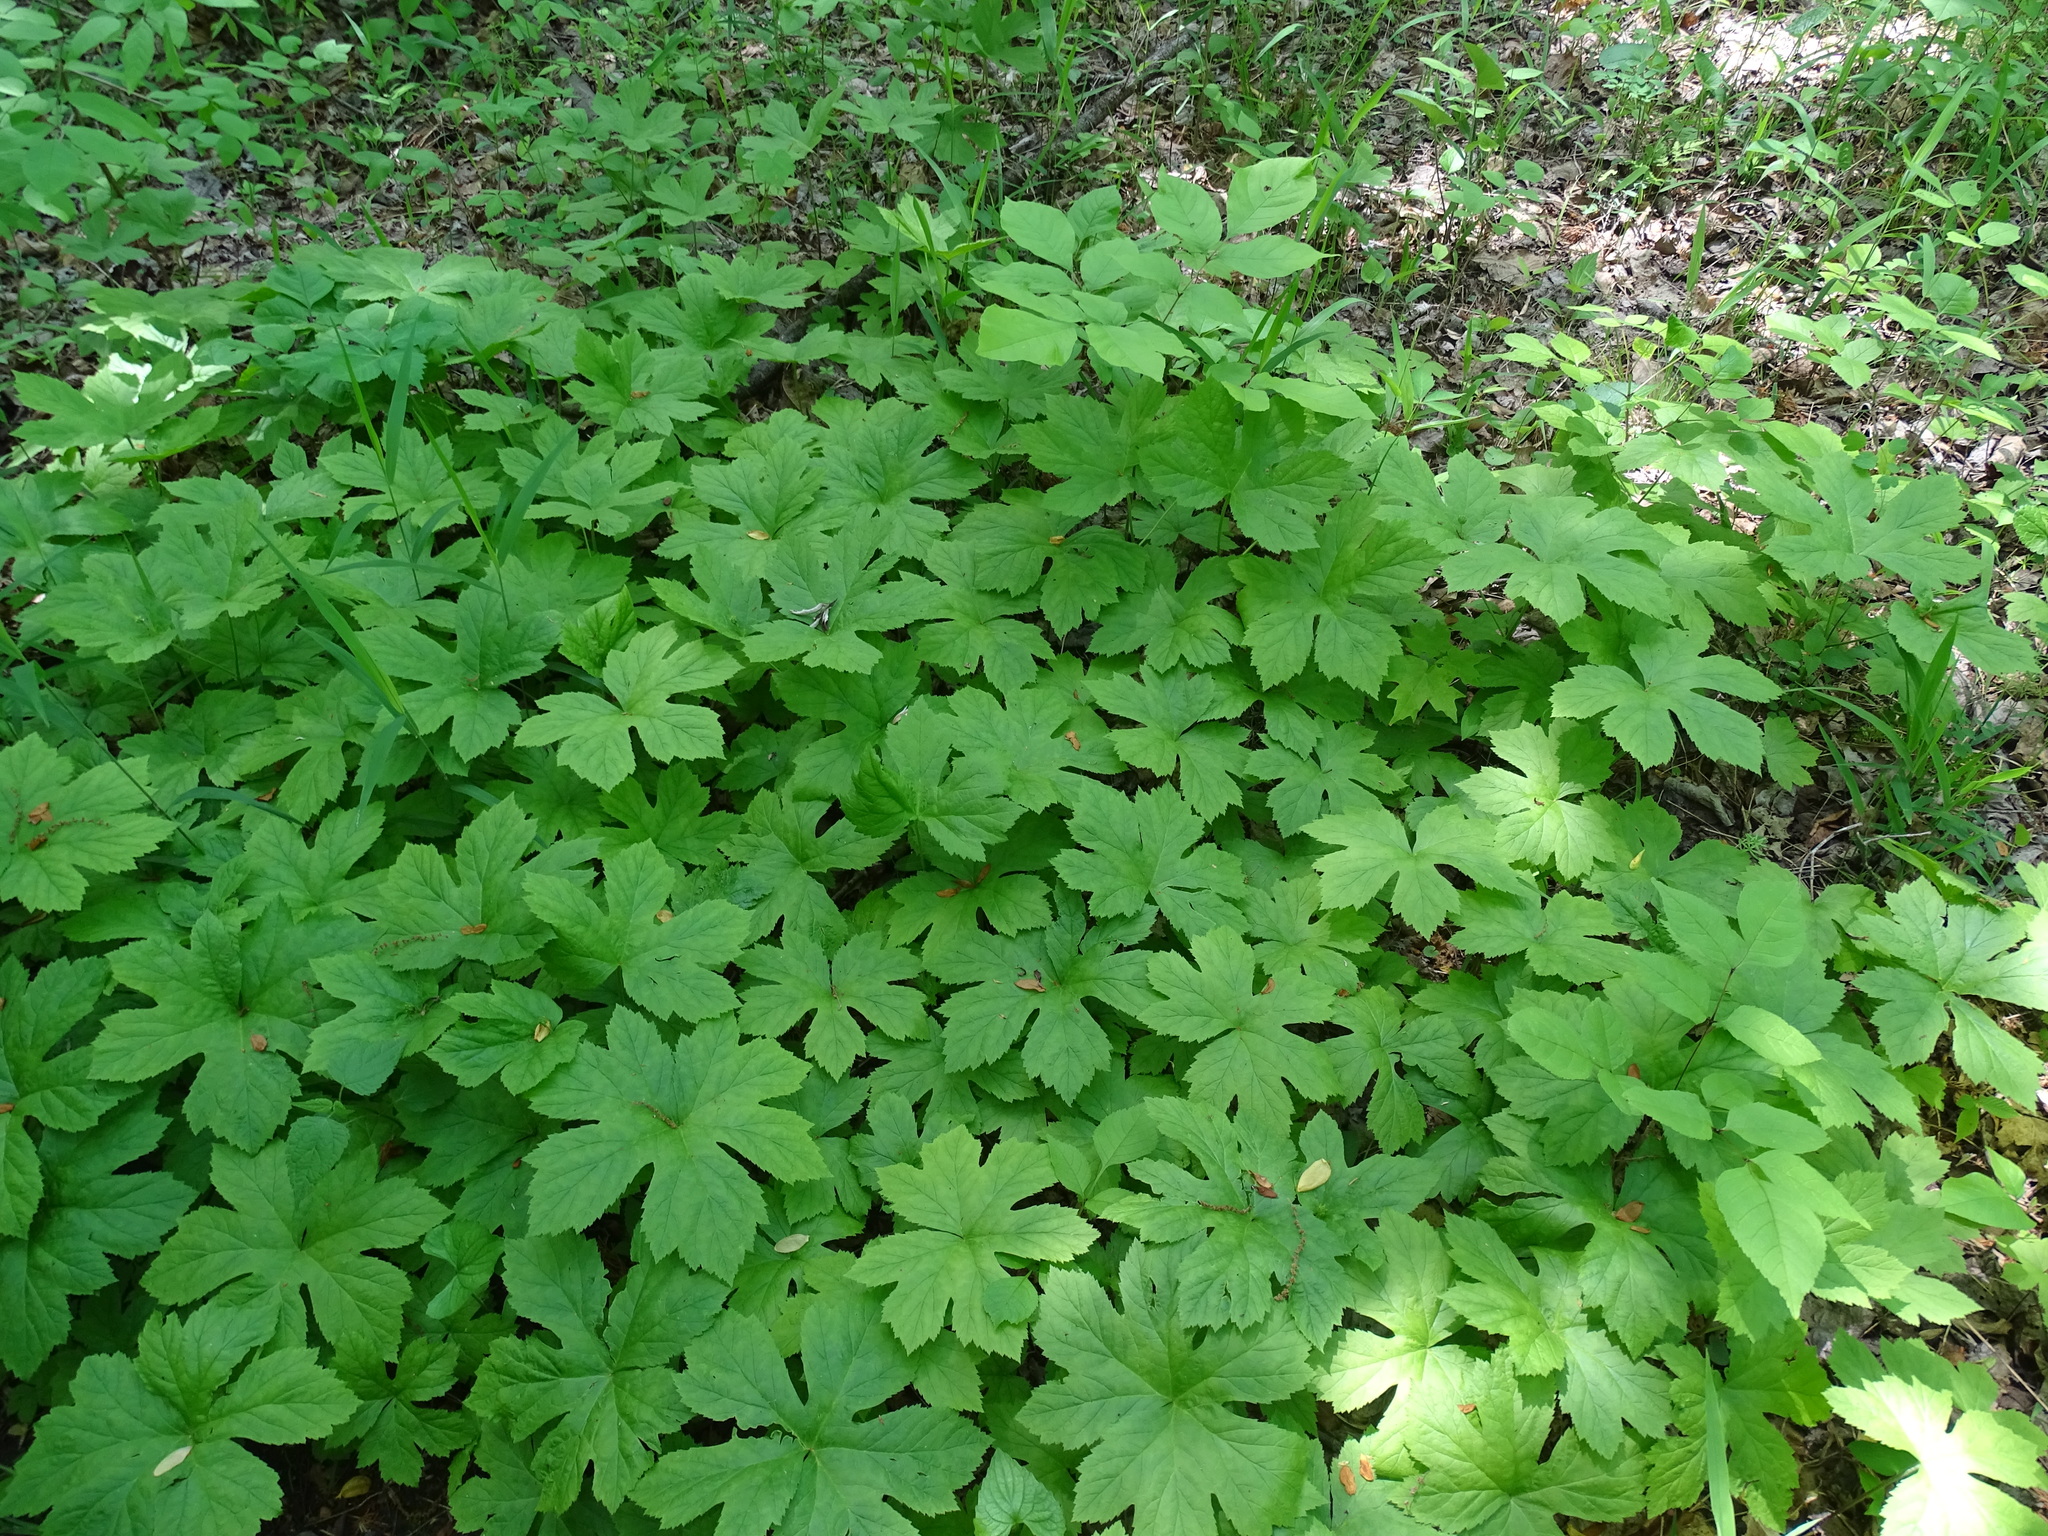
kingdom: Plantae
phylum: Tracheophyta
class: Magnoliopsida
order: Ranunculales
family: Ranunculaceae
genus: Hydrastis
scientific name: Hydrastis canadensis
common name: Goldenseal
